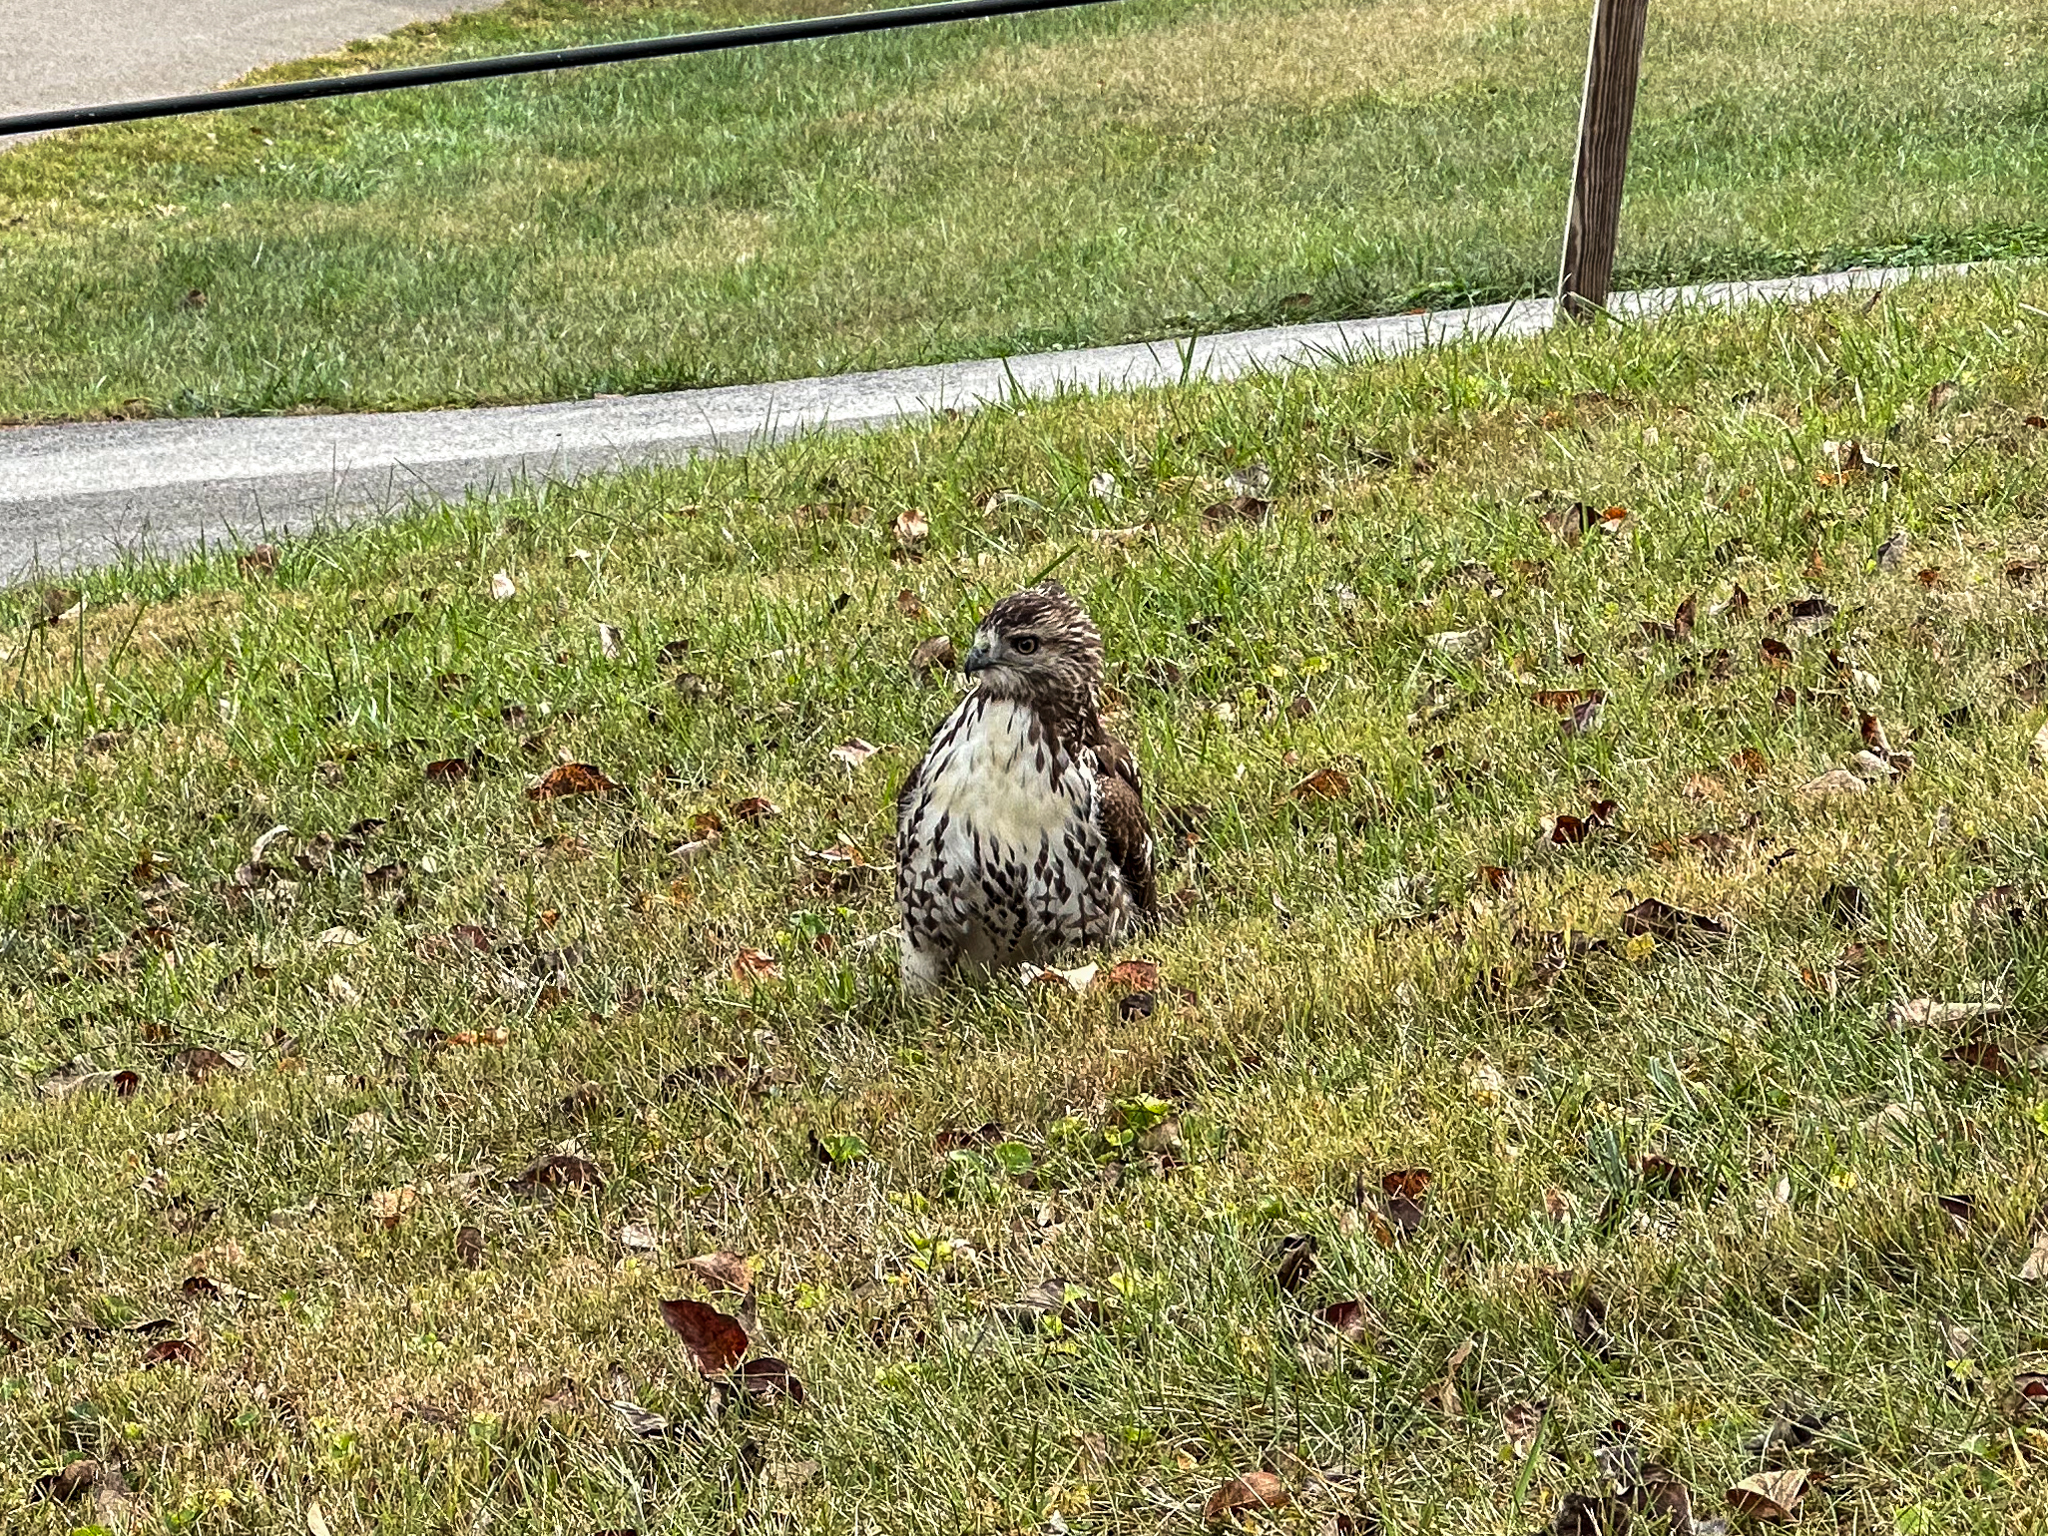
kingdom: Animalia
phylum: Chordata
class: Aves
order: Accipitriformes
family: Accipitridae
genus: Buteo
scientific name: Buteo jamaicensis
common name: Red-tailed hawk
